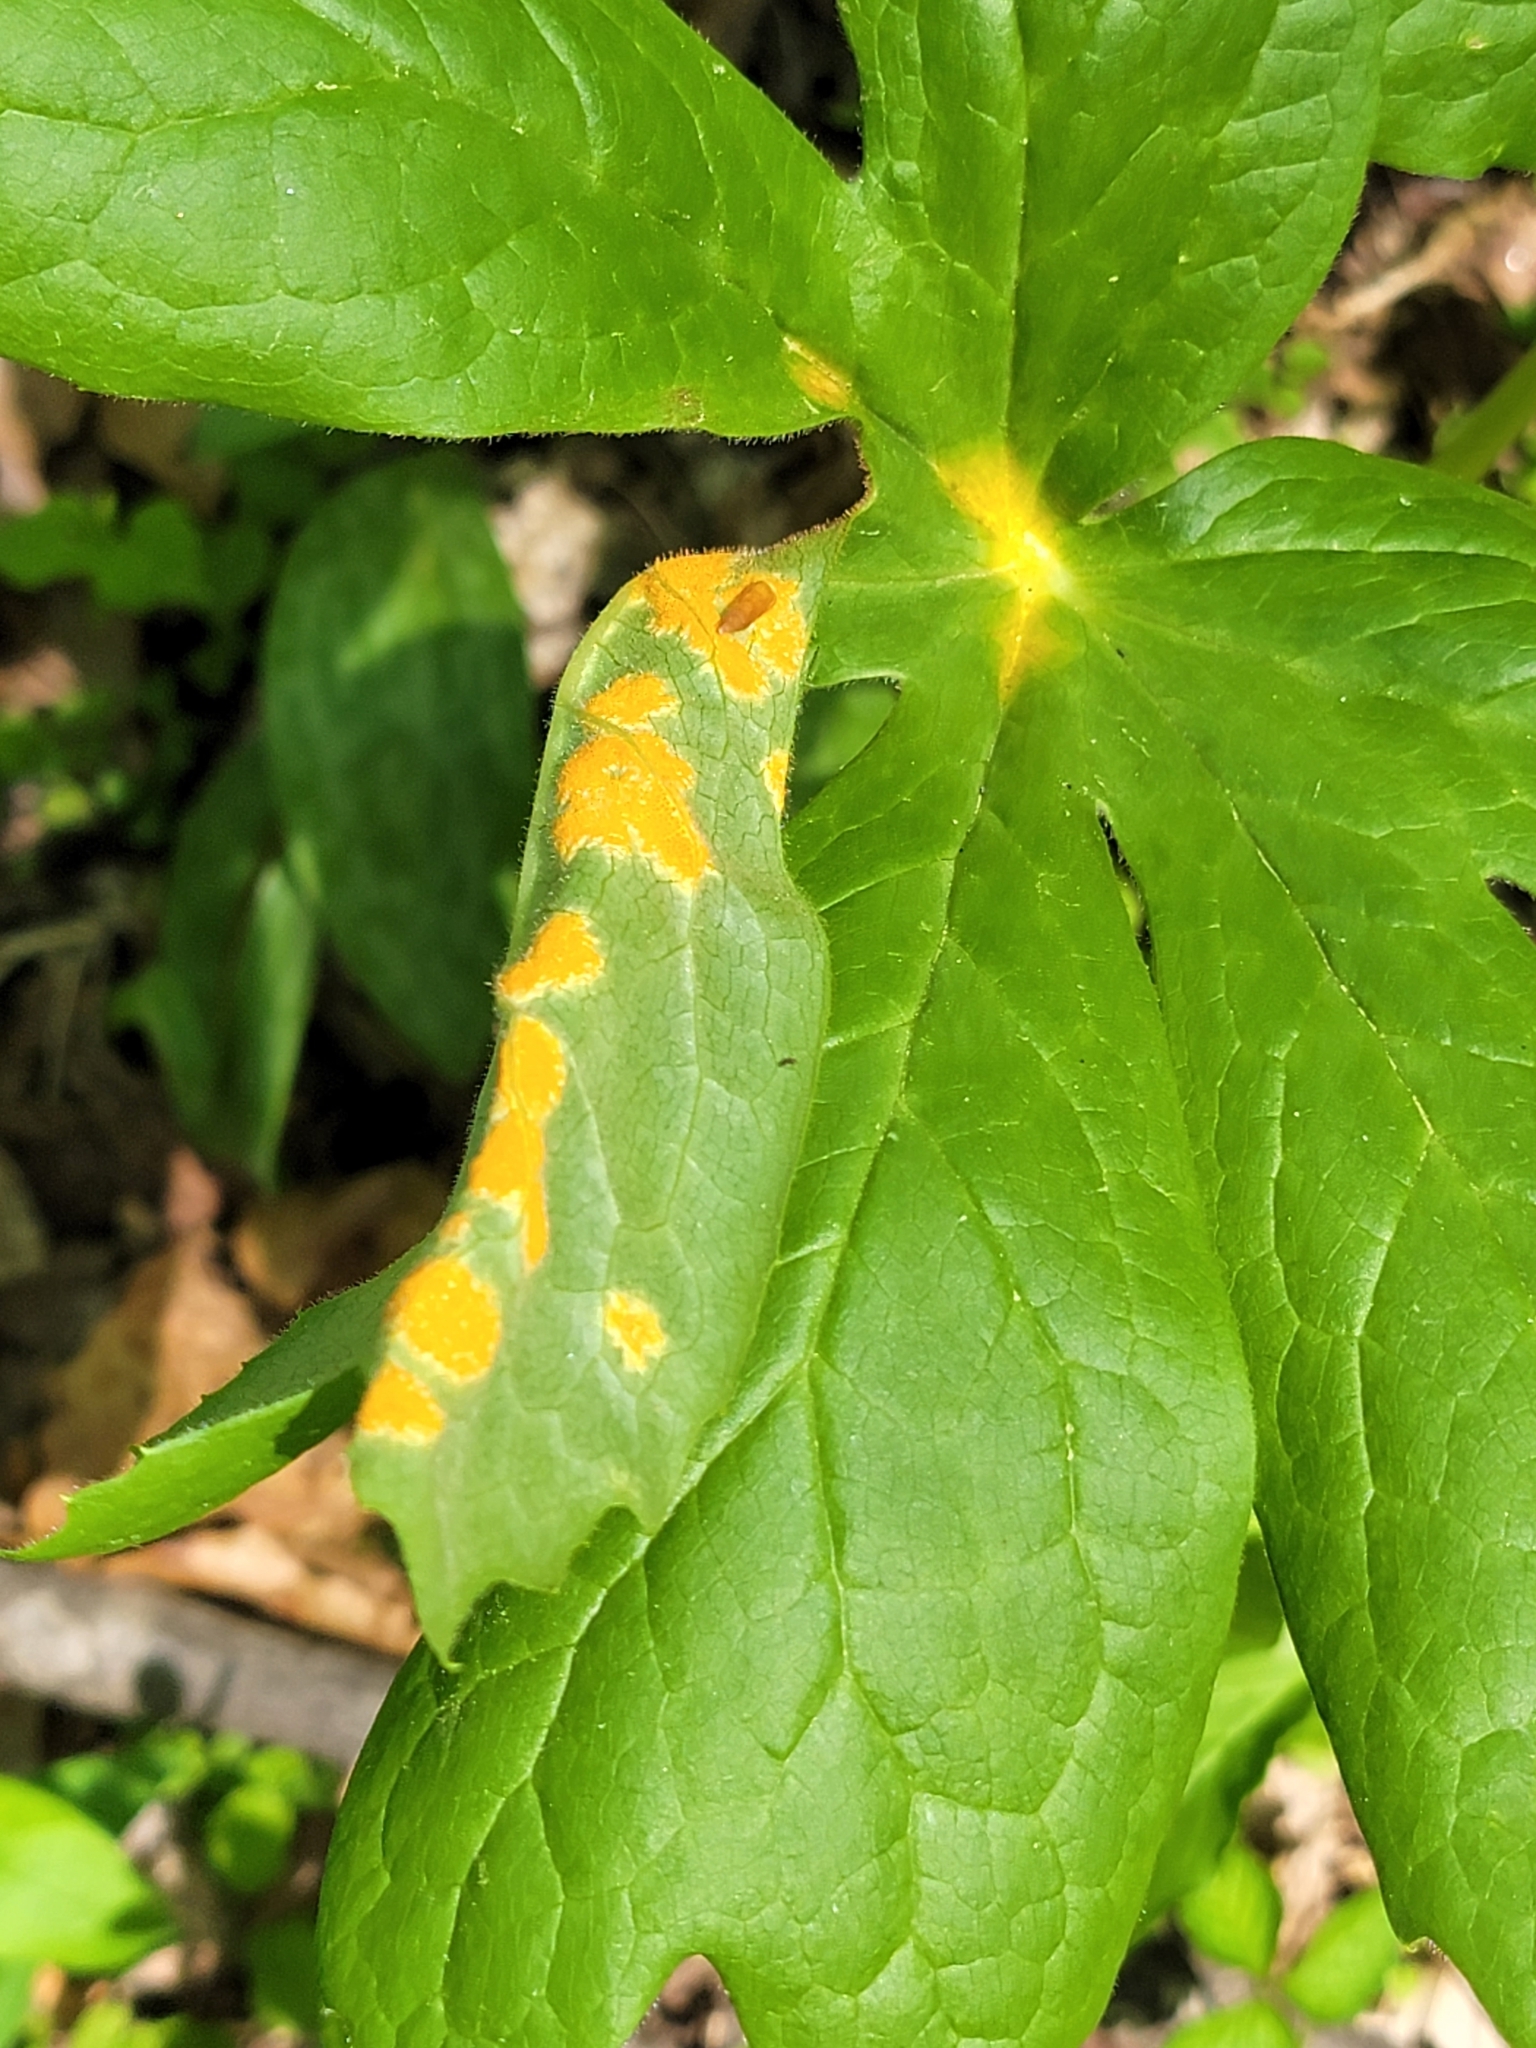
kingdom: Fungi
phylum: Basidiomycota
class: Pucciniomycetes
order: Pucciniales
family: Pucciniaceae
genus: Puccinia
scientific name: Puccinia podophylli
